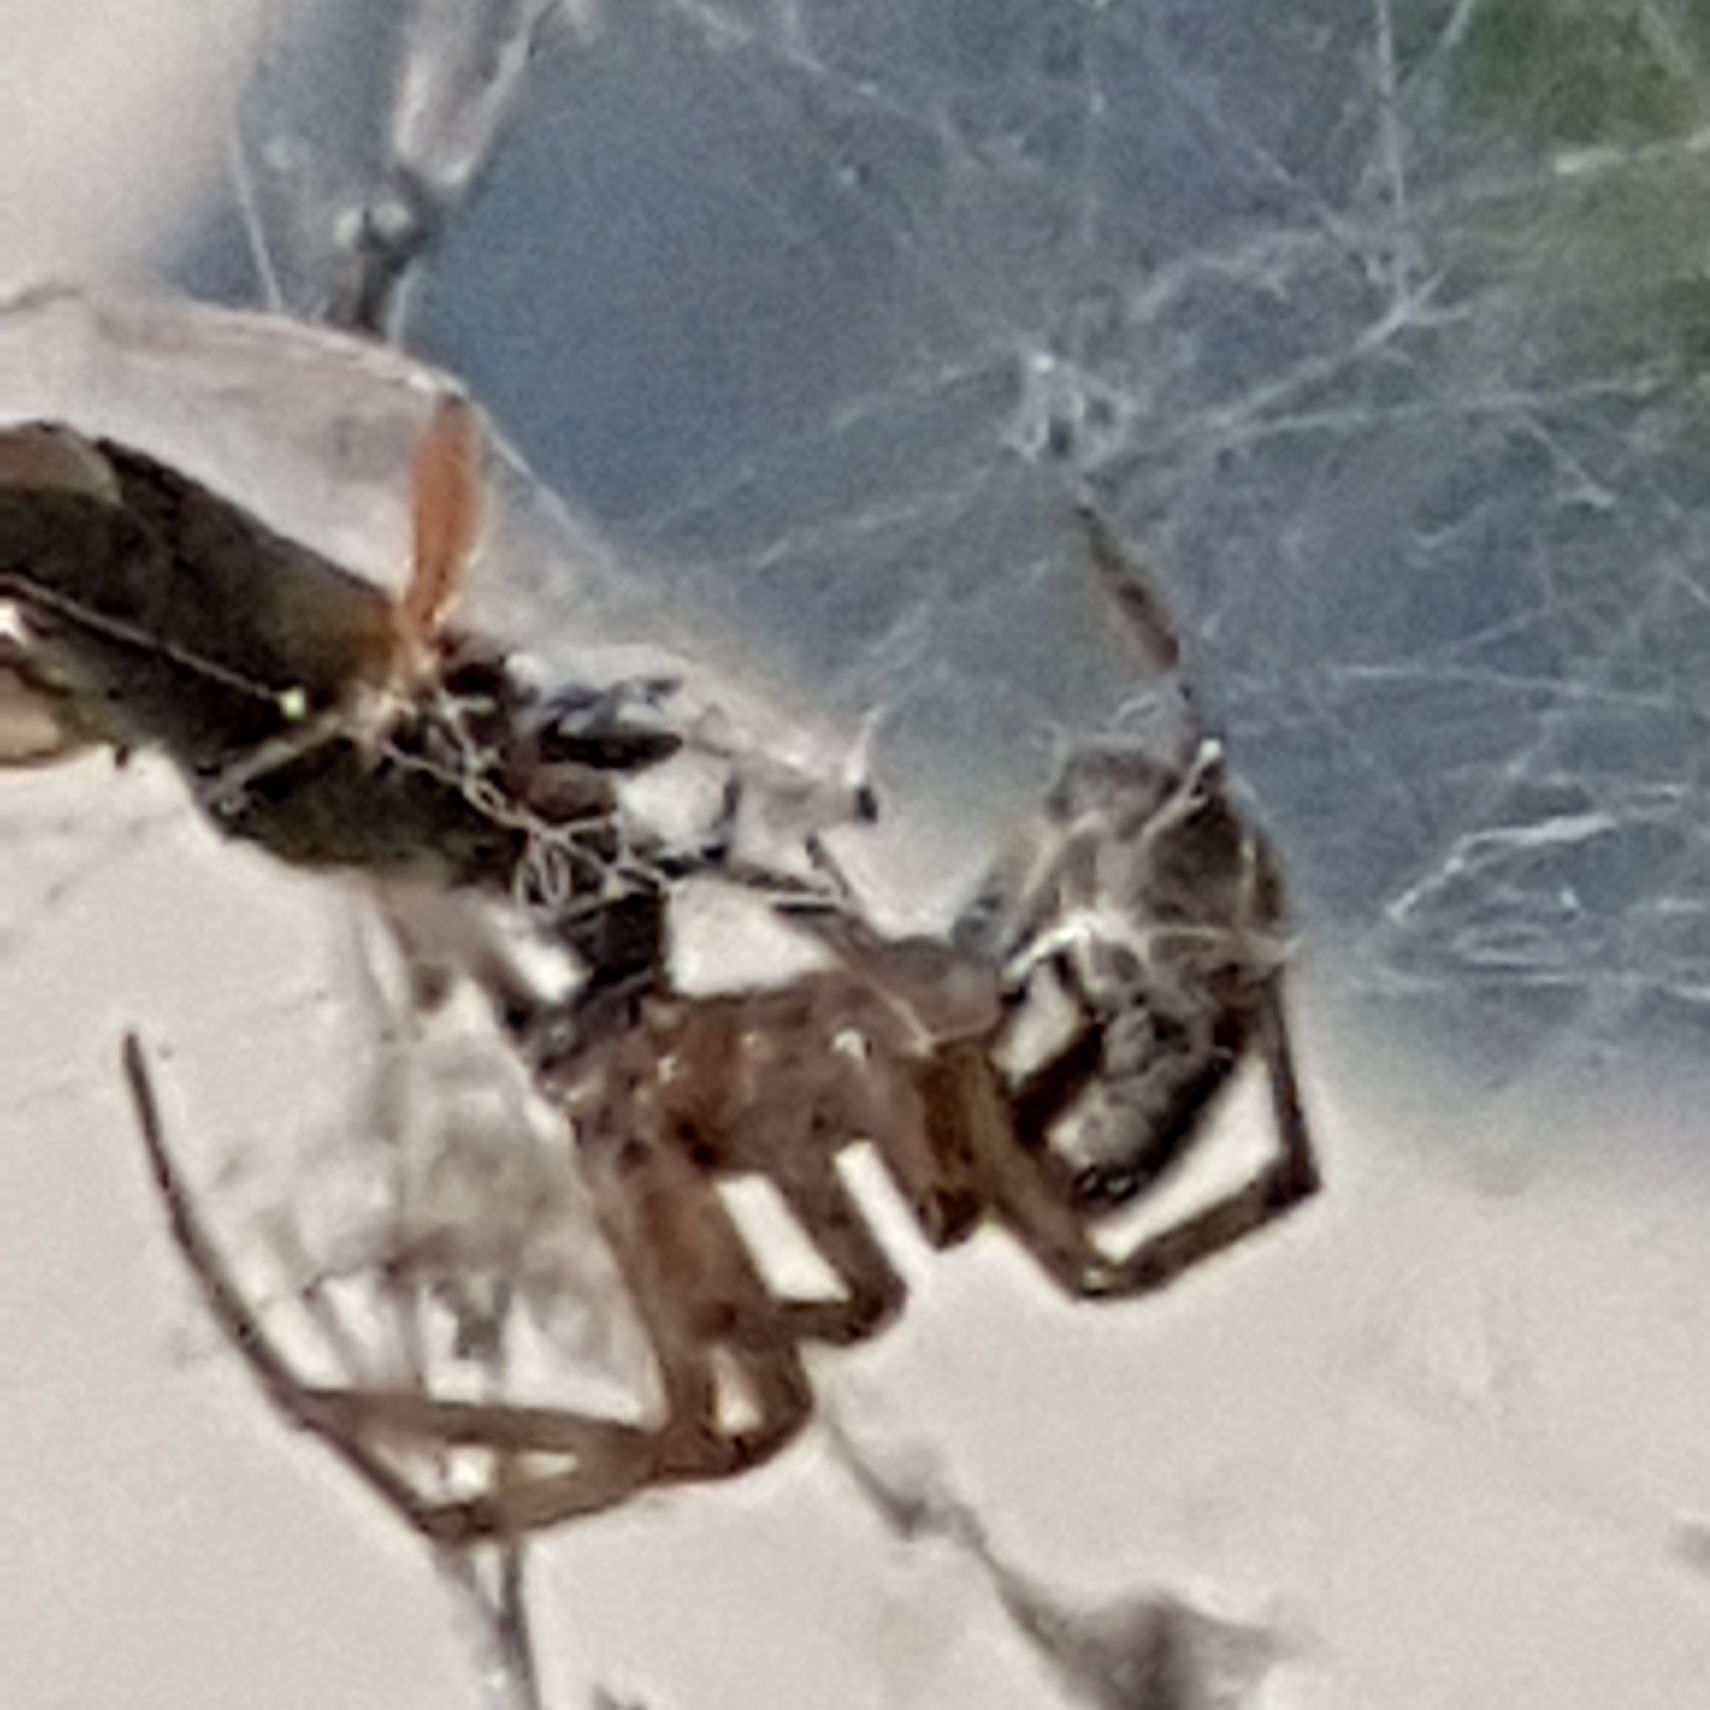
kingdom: Animalia
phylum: Arthropoda
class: Arachnida
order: Araneae
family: Theridiidae
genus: Steatoda
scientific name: Steatoda nobilis
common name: Cobweb weaver
